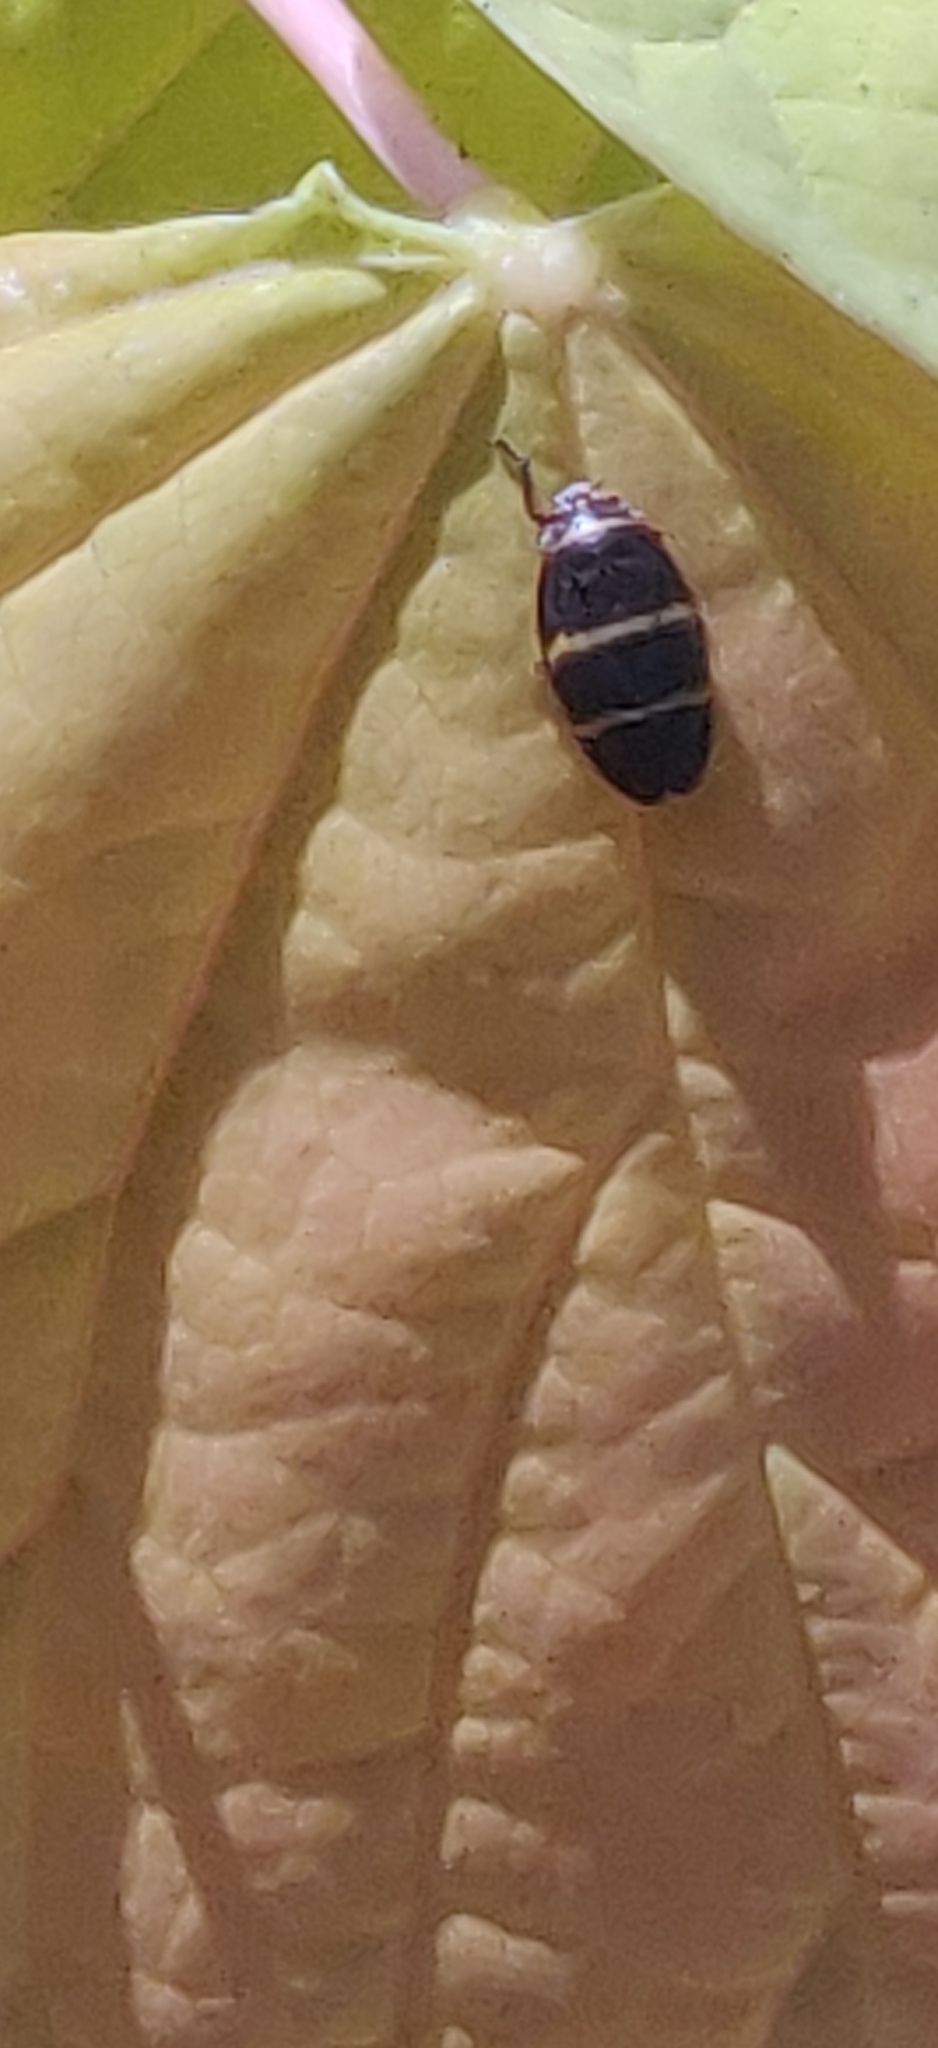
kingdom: Animalia
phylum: Arthropoda
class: Insecta
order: Hemiptera
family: Cercopidae
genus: Prosapia
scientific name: Prosapia bicincta
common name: Twolined spittlebug
